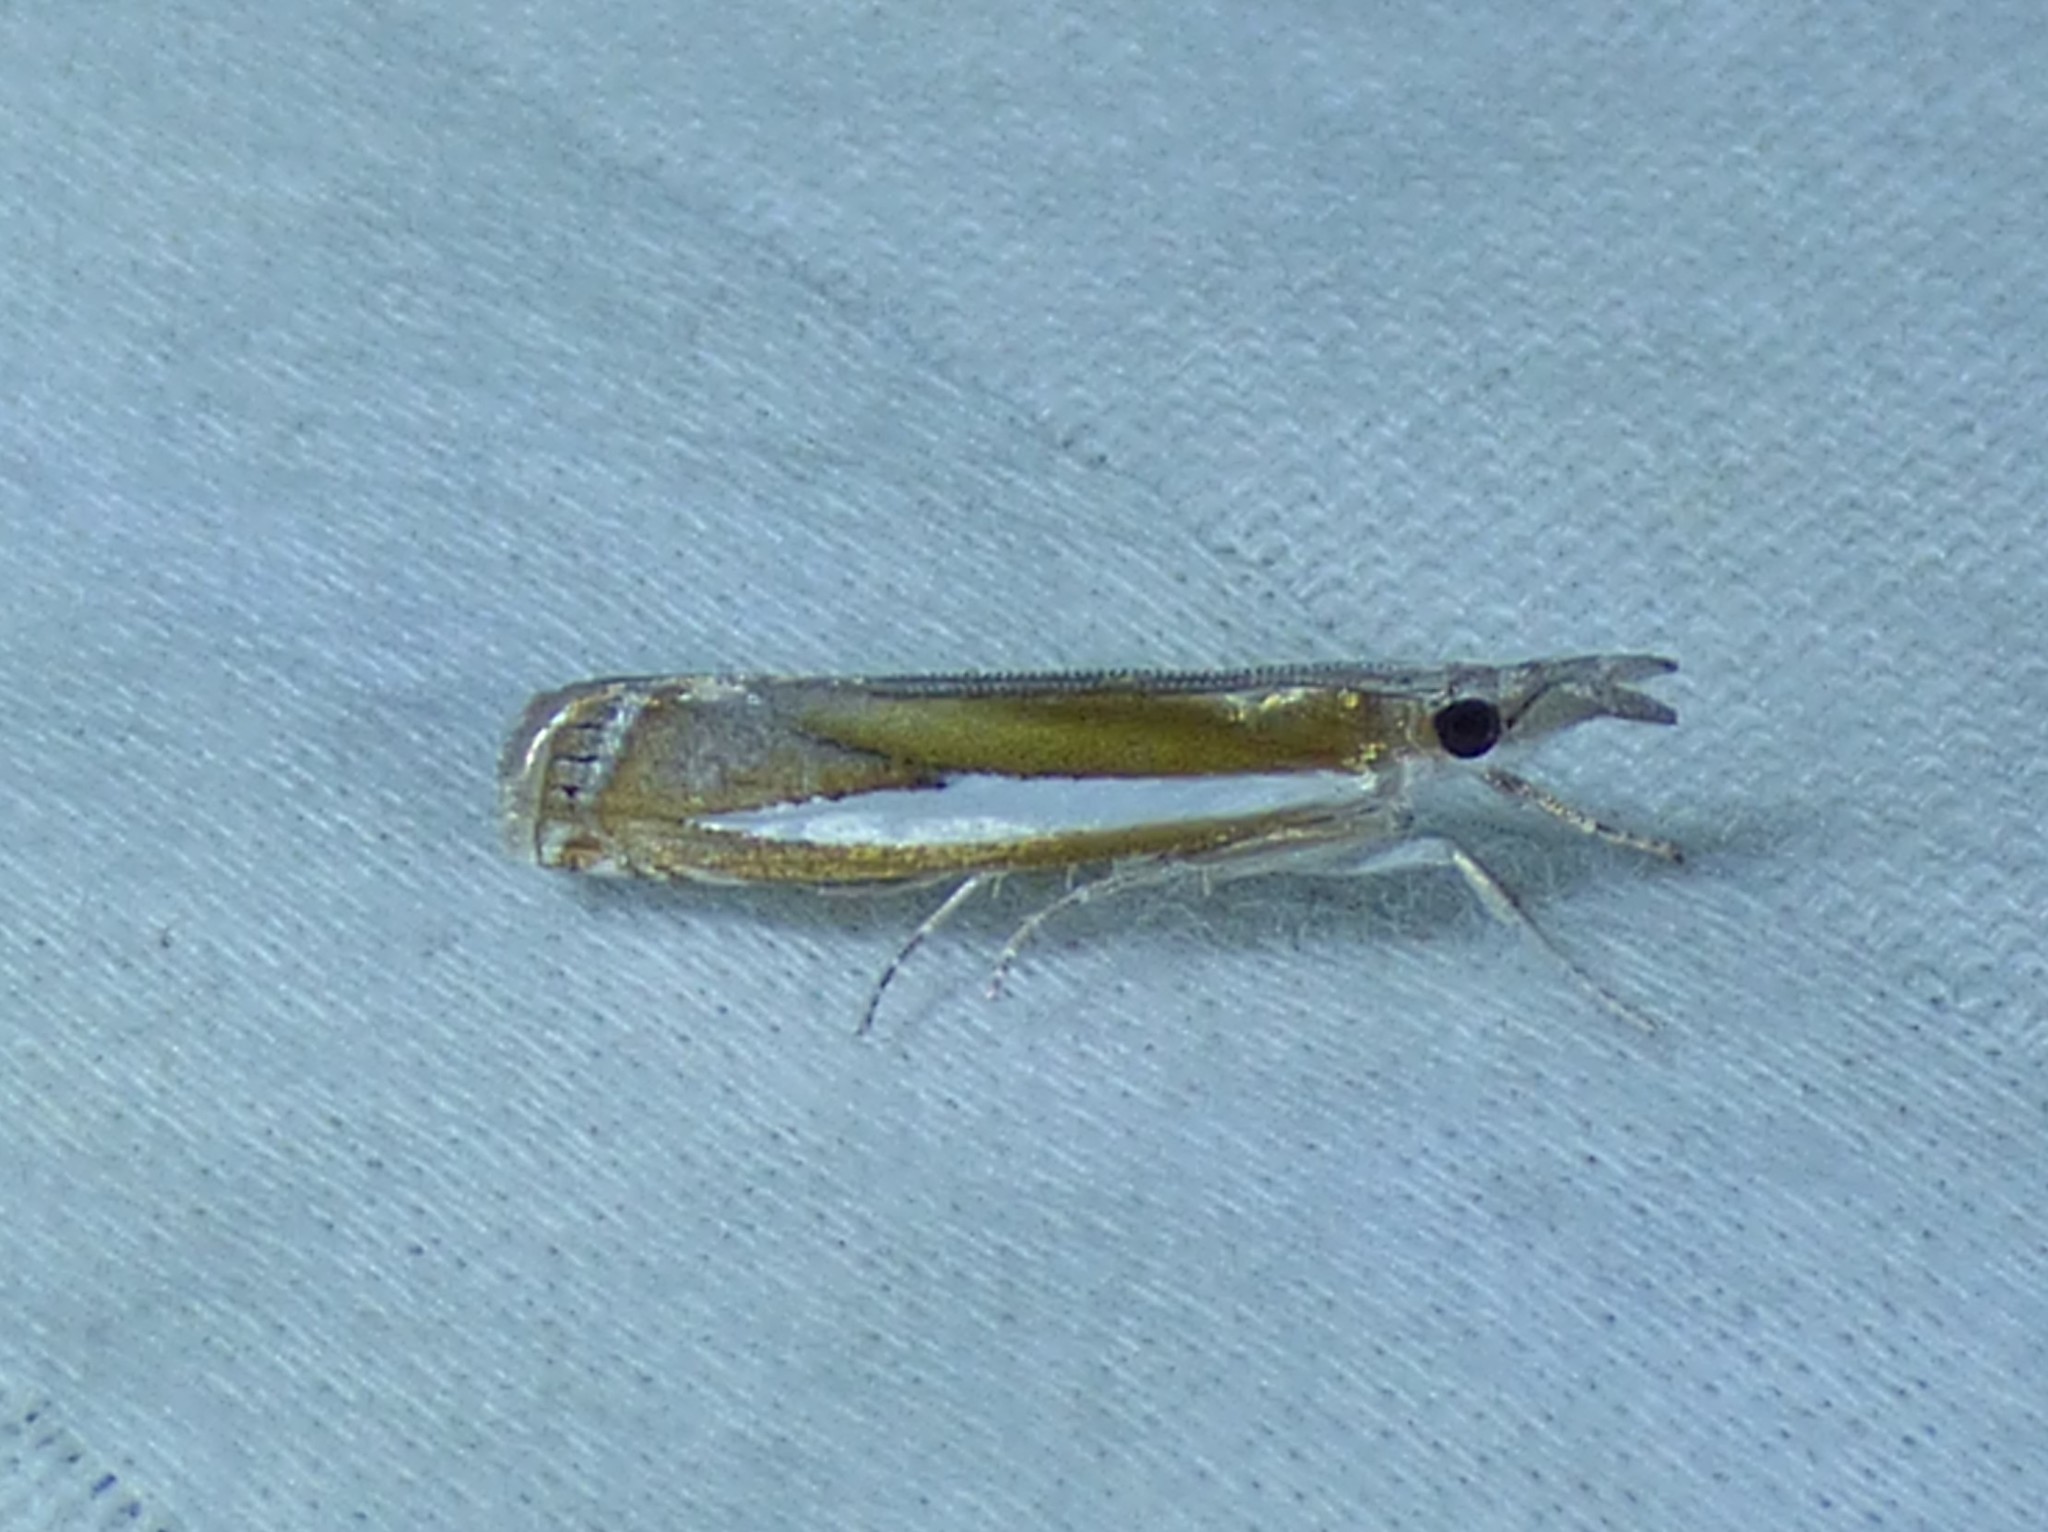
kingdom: Animalia
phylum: Arthropoda
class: Insecta
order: Lepidoptera
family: Crambidae
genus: Crambus
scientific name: Crambus praefectellus
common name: Common grass-veneer
